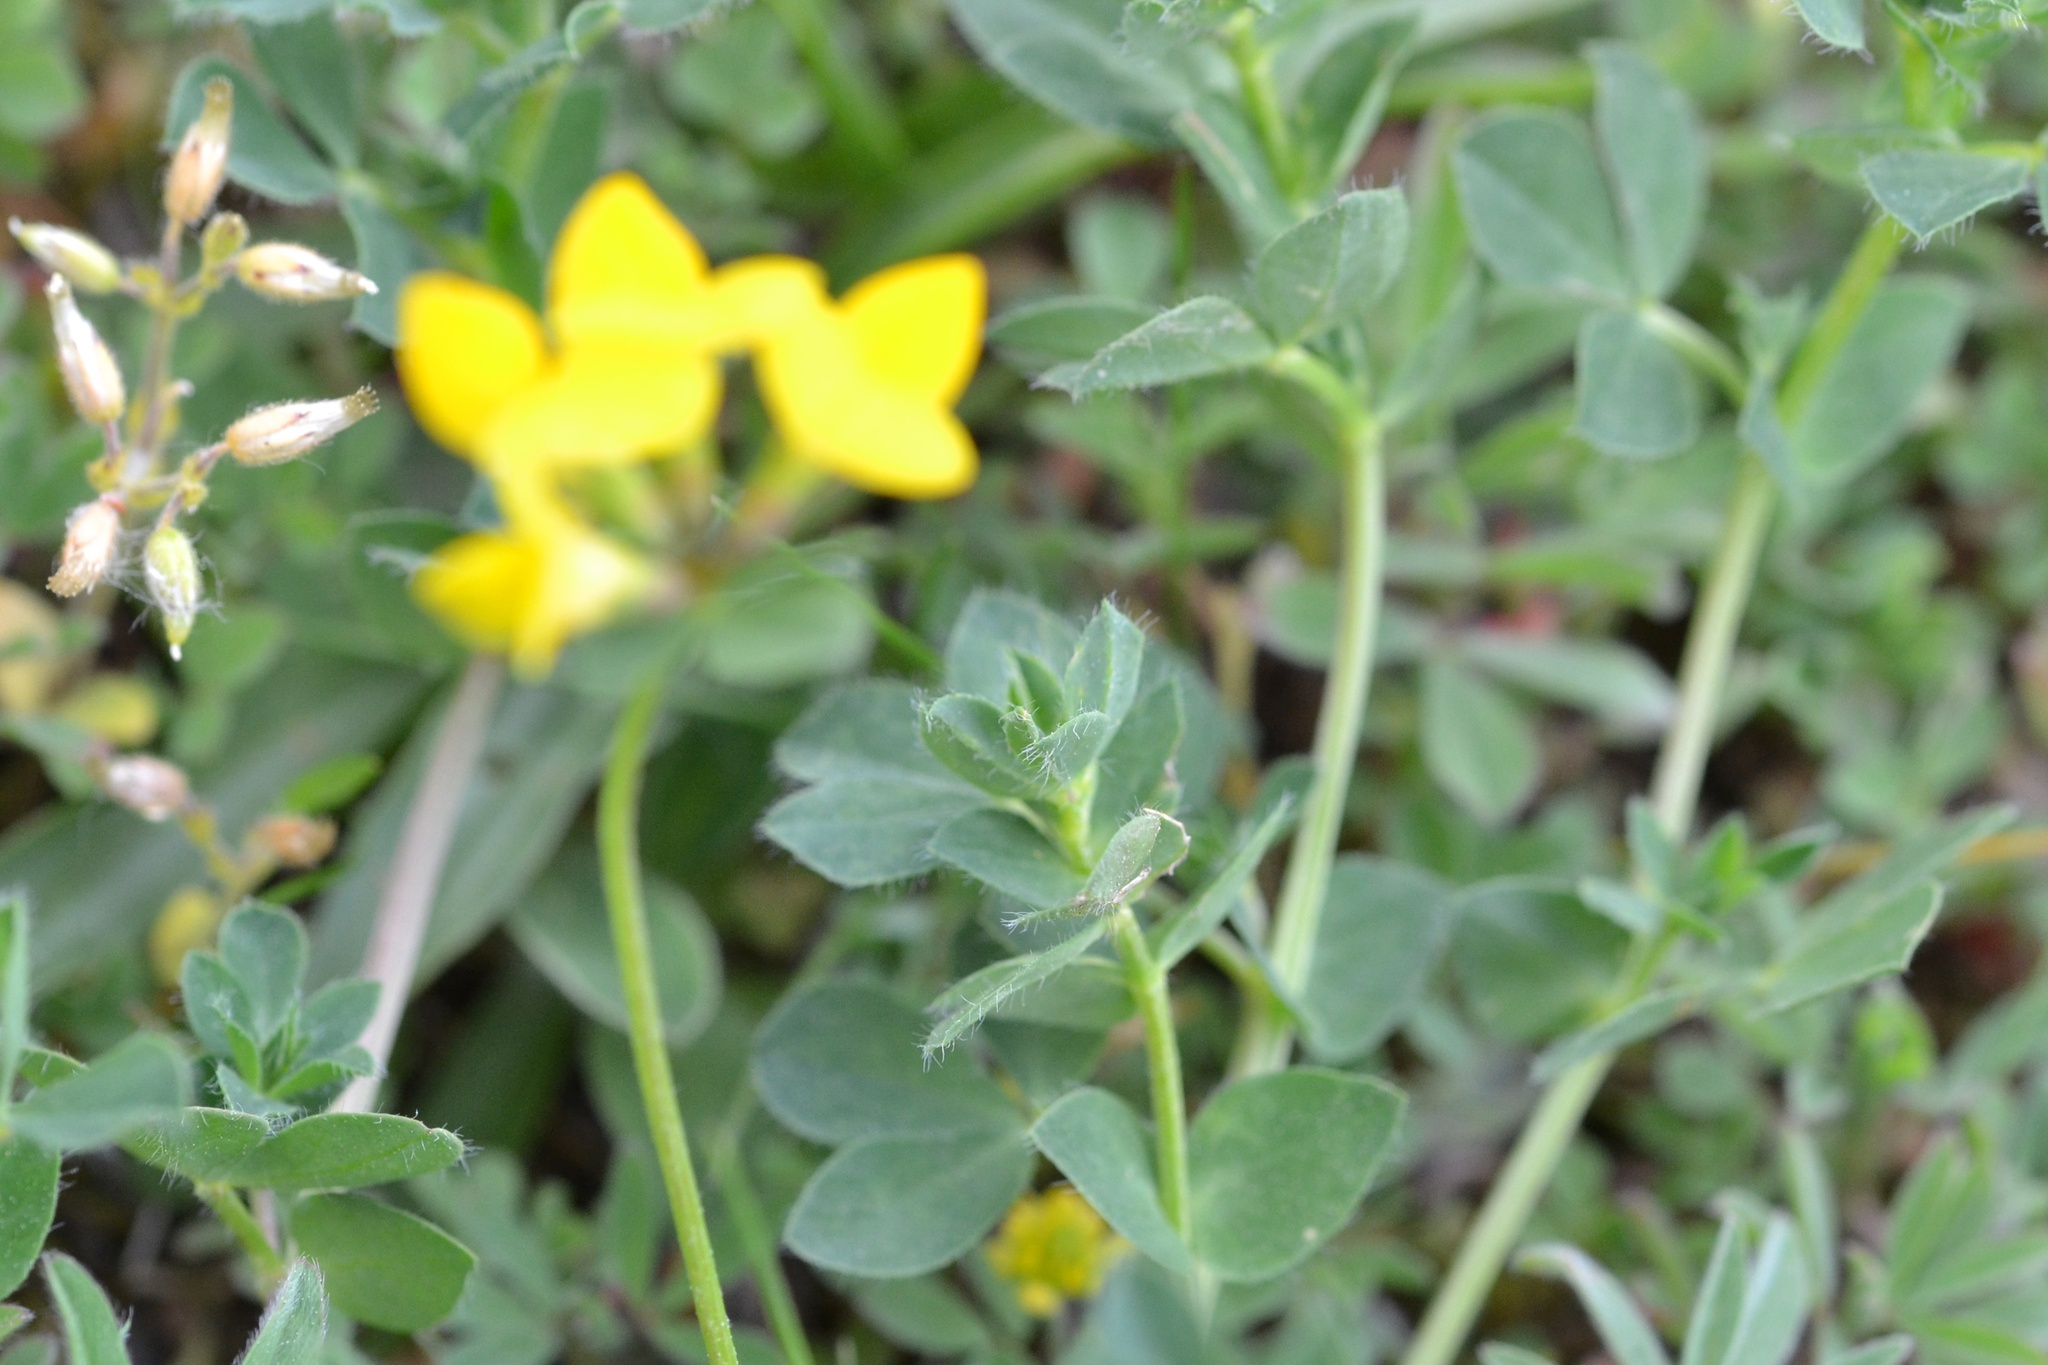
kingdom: Plantae
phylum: Tracheophyta
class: Magnoliopsida
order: Fabales
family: Fabaceae
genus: Lotus
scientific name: Lotus corniculatus
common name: Common bird's-foot-trefoil
